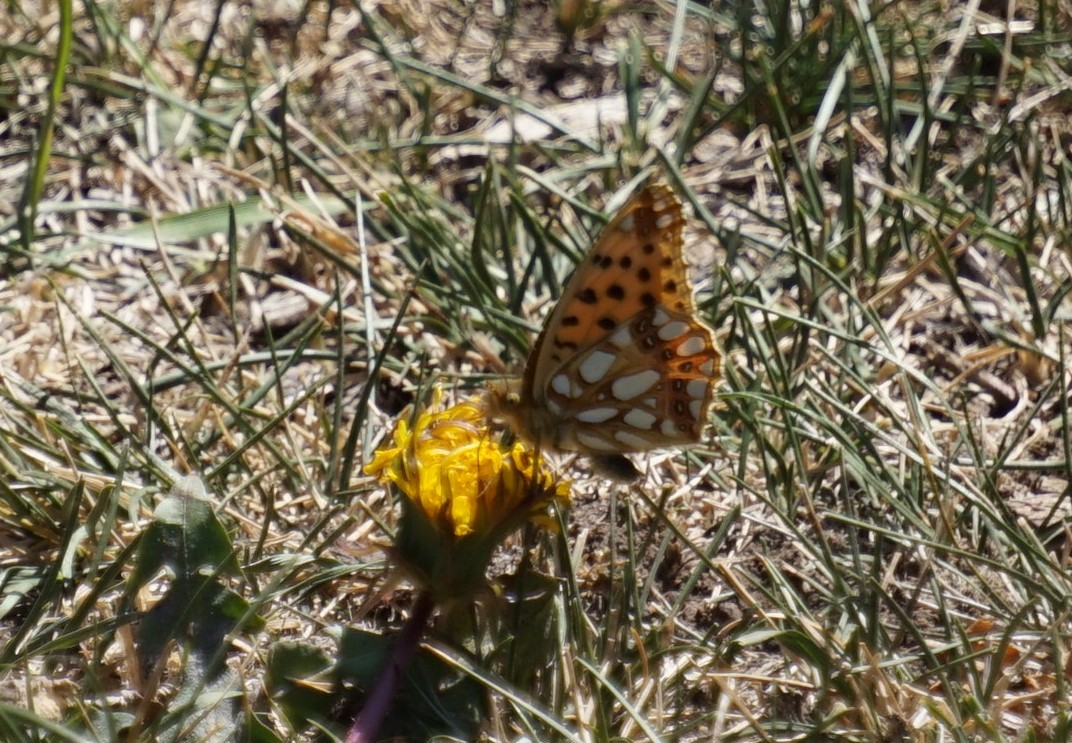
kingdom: Animalia
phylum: Arthropoda
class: Insecta
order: Lepidoptera
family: Nymphalidae
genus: Issoria
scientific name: Issoria lathonia
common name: Queen of spain fritillary
